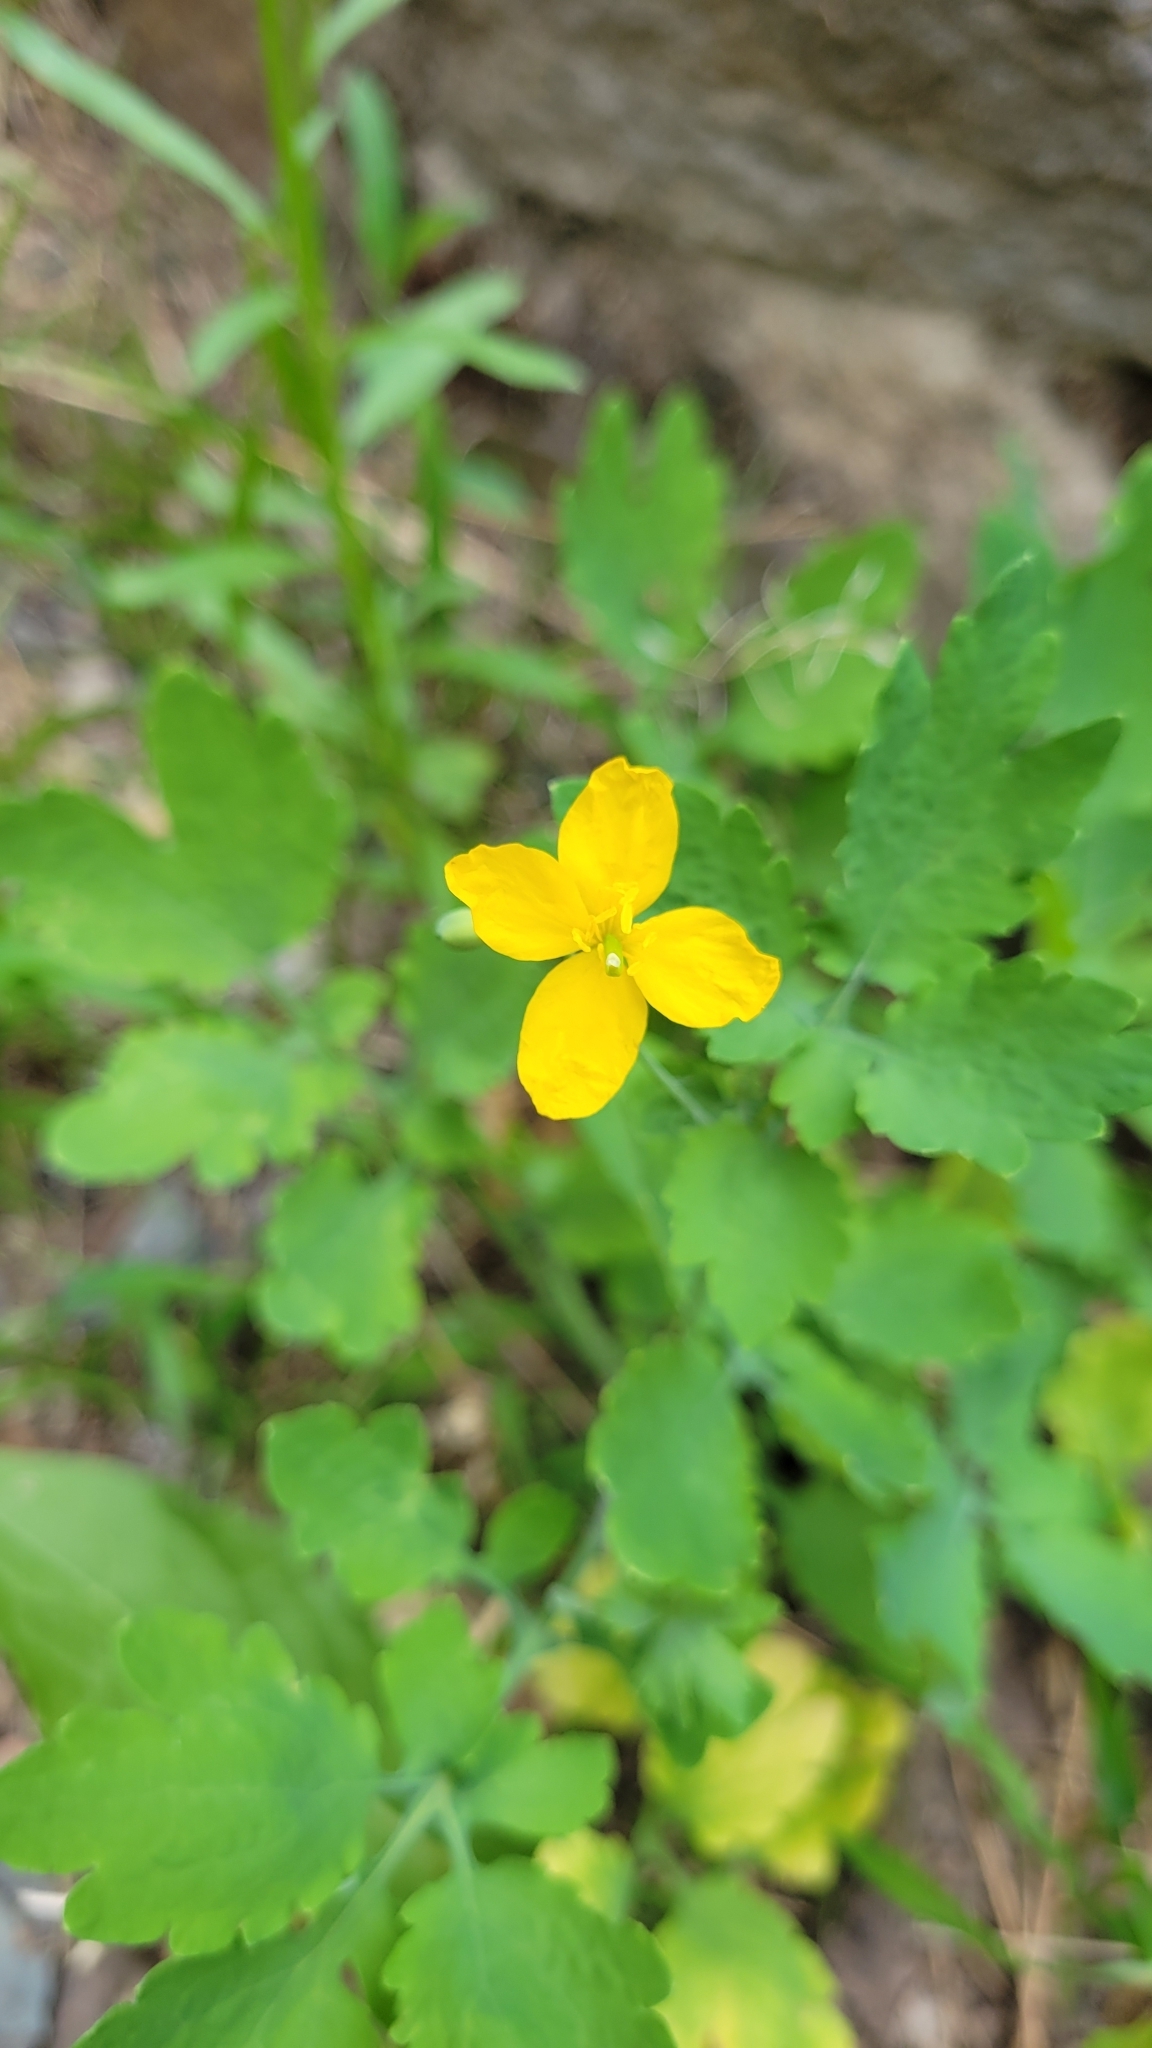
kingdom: Plantae
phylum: Tracheophyta
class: Magnoliopsida
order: Ranunculales
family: Papaveraceae
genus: Chelidonium
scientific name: Chelidonium majus
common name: Greater celandine
